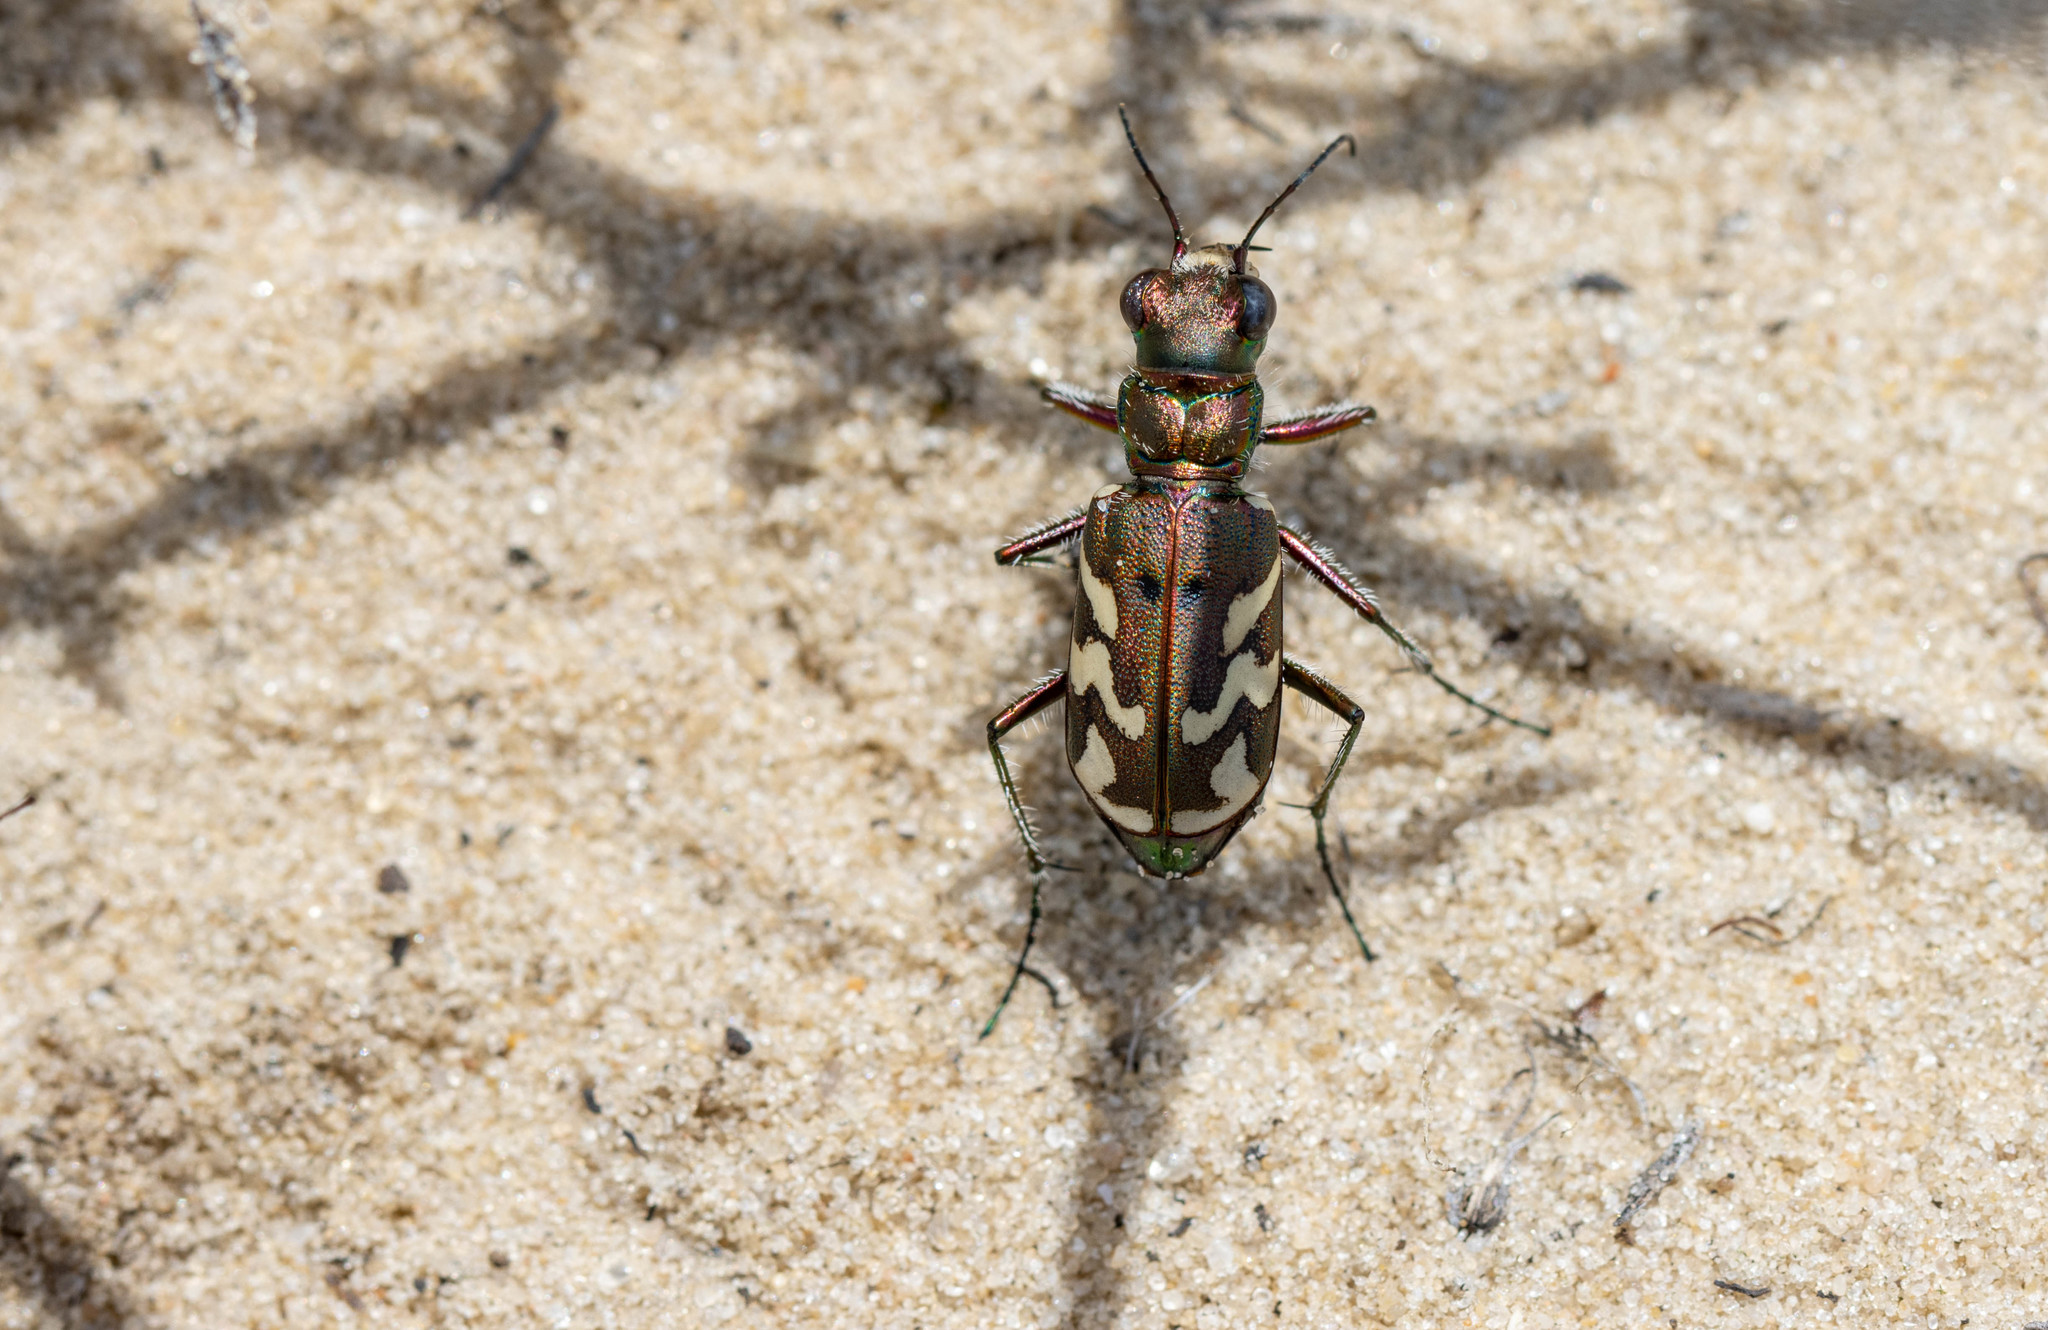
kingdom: Animalia
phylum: Arthropoda
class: Insecta
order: Coleoptera
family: Carabidae
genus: Cicindela
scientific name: Cicindela nordmanni
